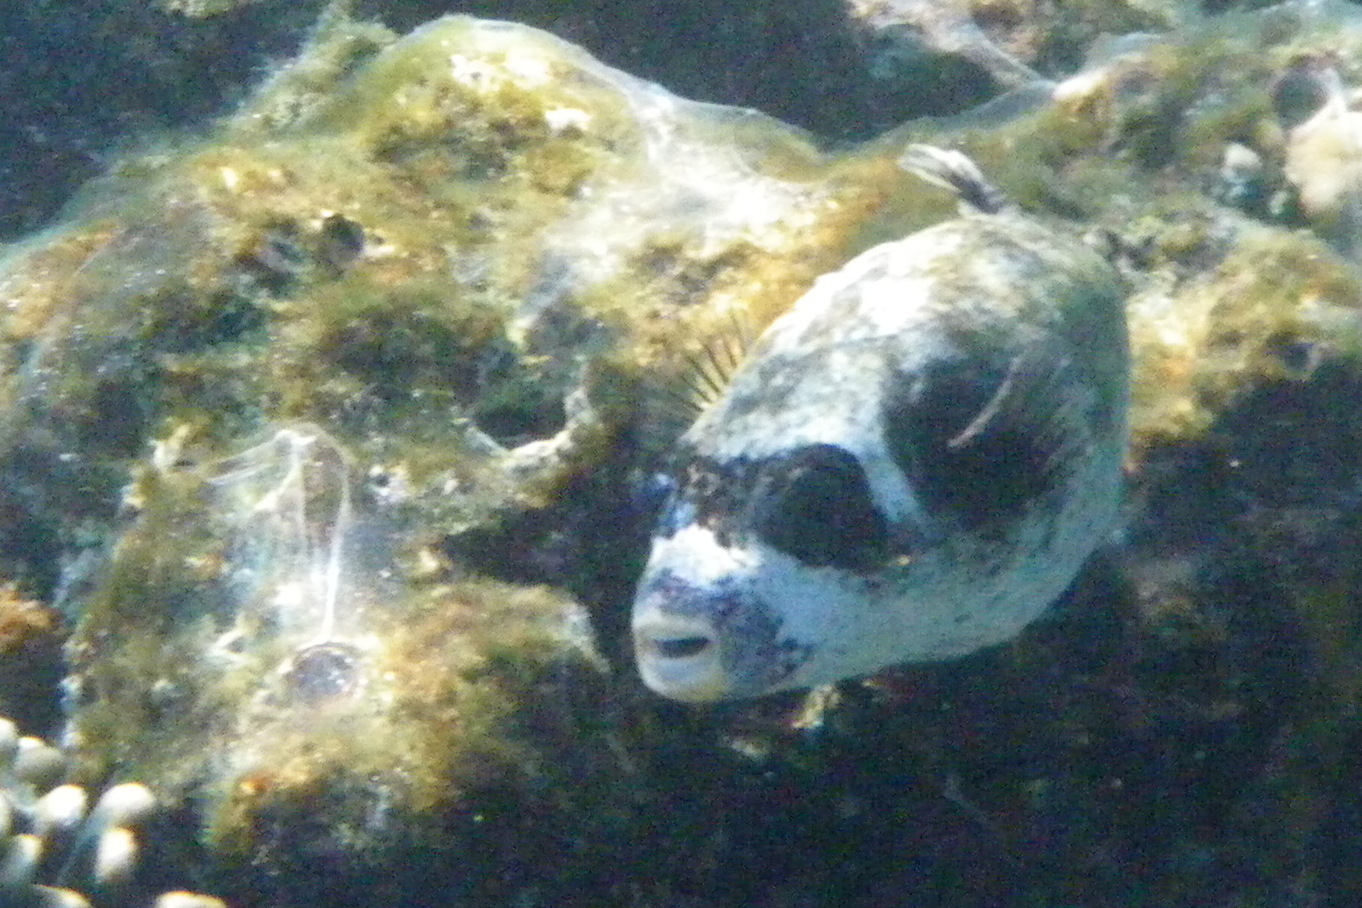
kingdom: Animalia
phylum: Chordata
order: Tetraodontiformes
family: Tetraodontidae
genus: Arothron
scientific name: Arothron diadematus
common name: Masked puffer
